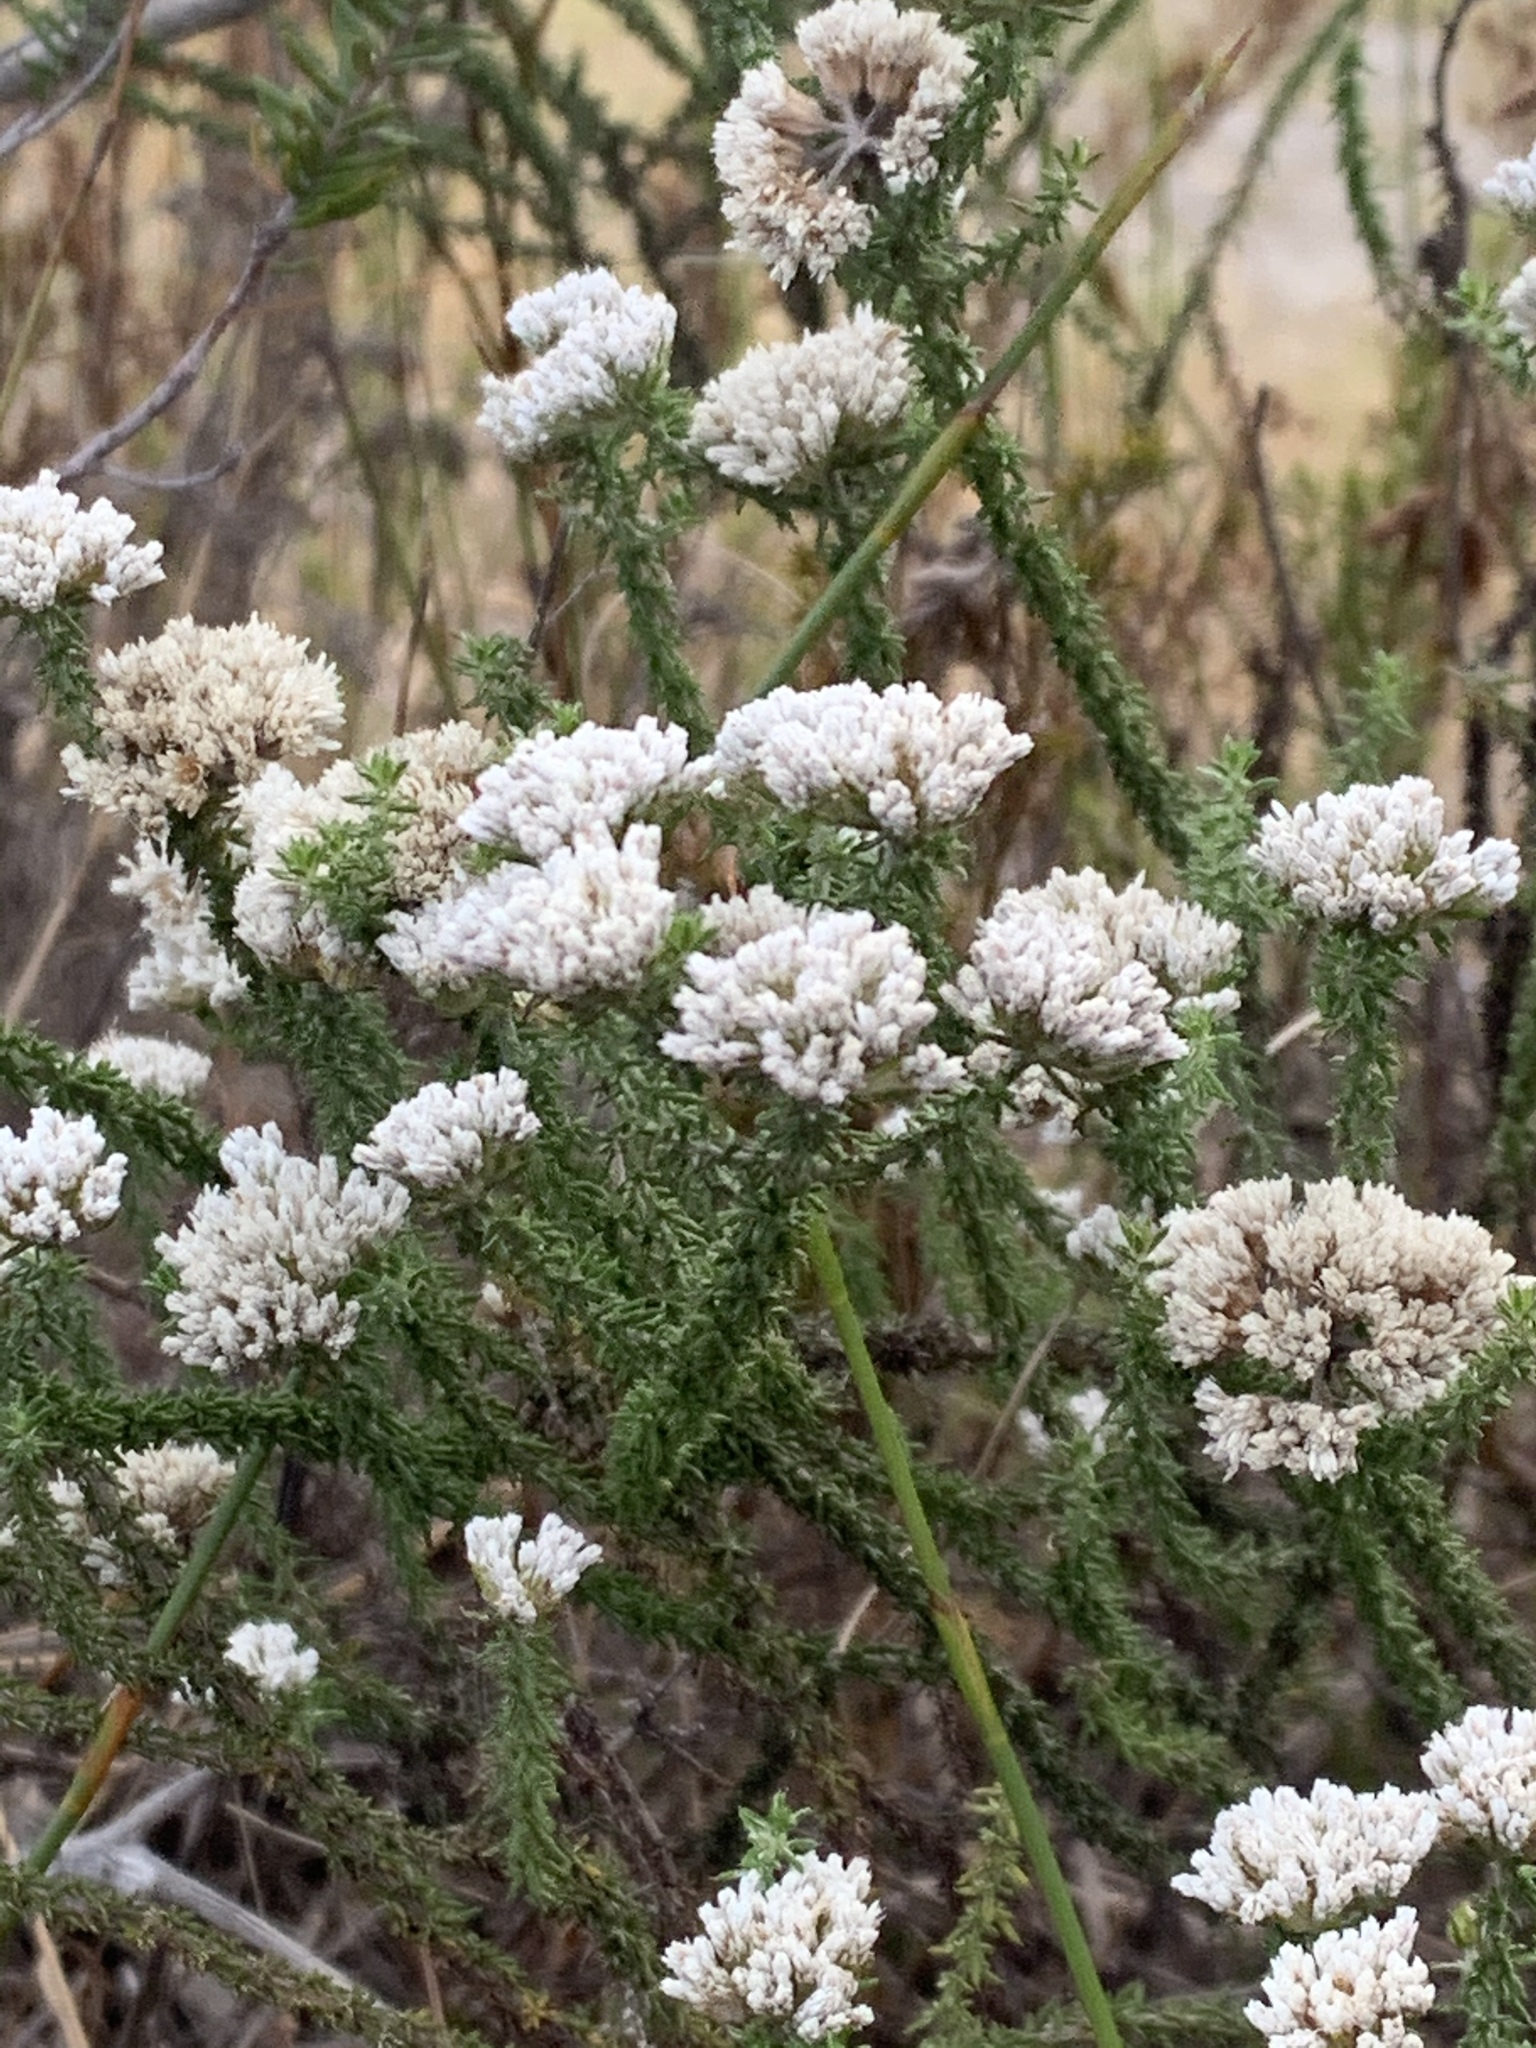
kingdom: Plantae
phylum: Tracheophyta
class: Magnoliopsida
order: Asterales
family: Asteraceae
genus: Metalasia
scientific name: Metalasia brevifolia
